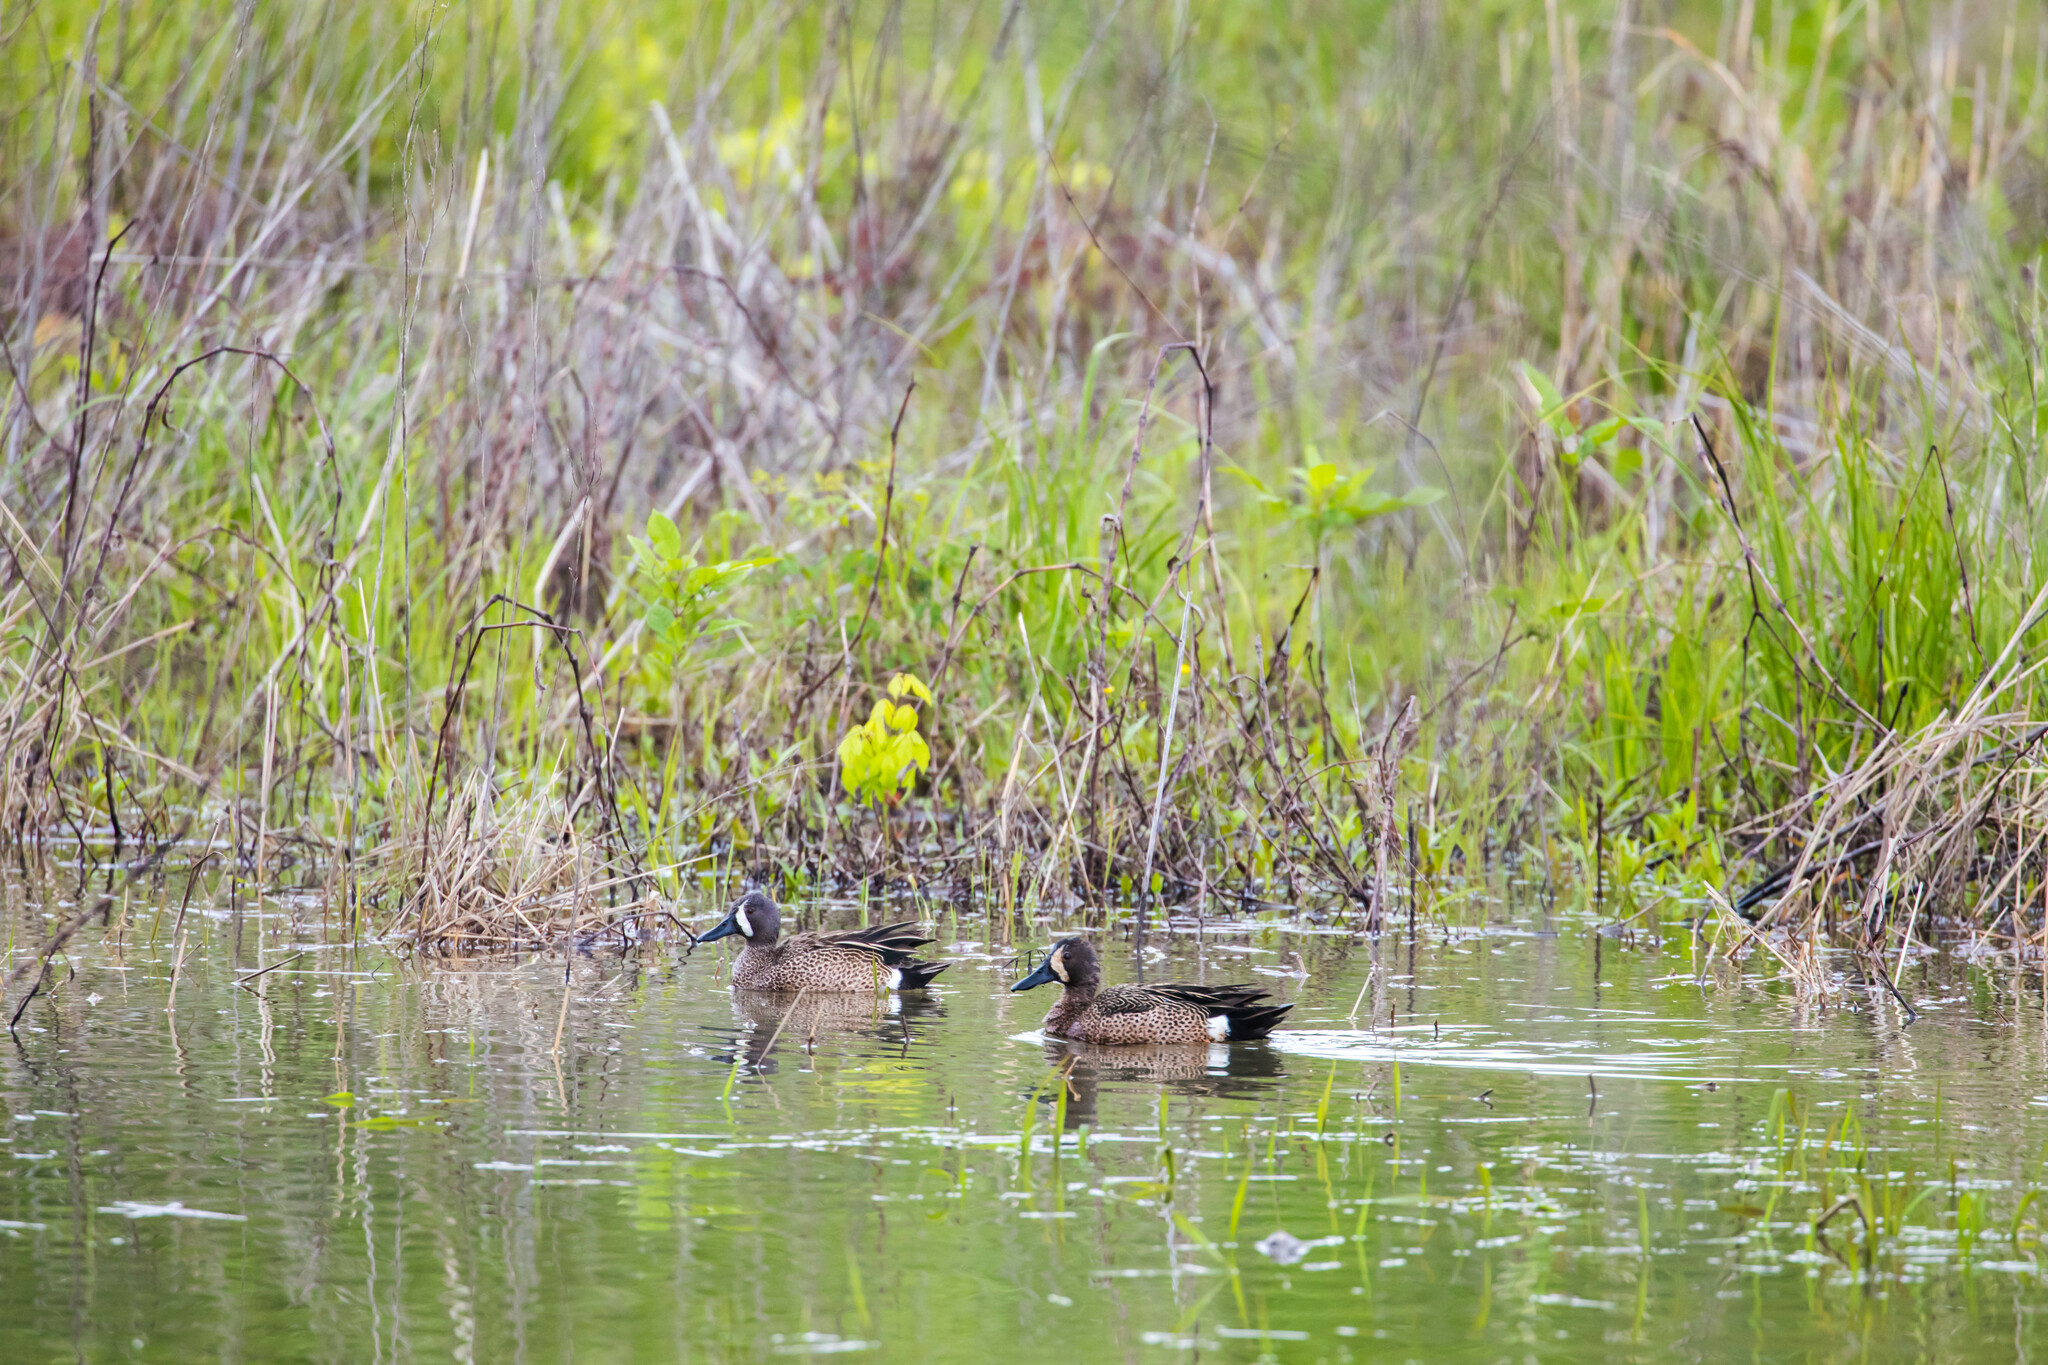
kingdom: Animalia
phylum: Chordata
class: Aves
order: Anseriformes
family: Anatidae
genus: Spatula
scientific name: Spatula discors
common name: Blue-winged teal
